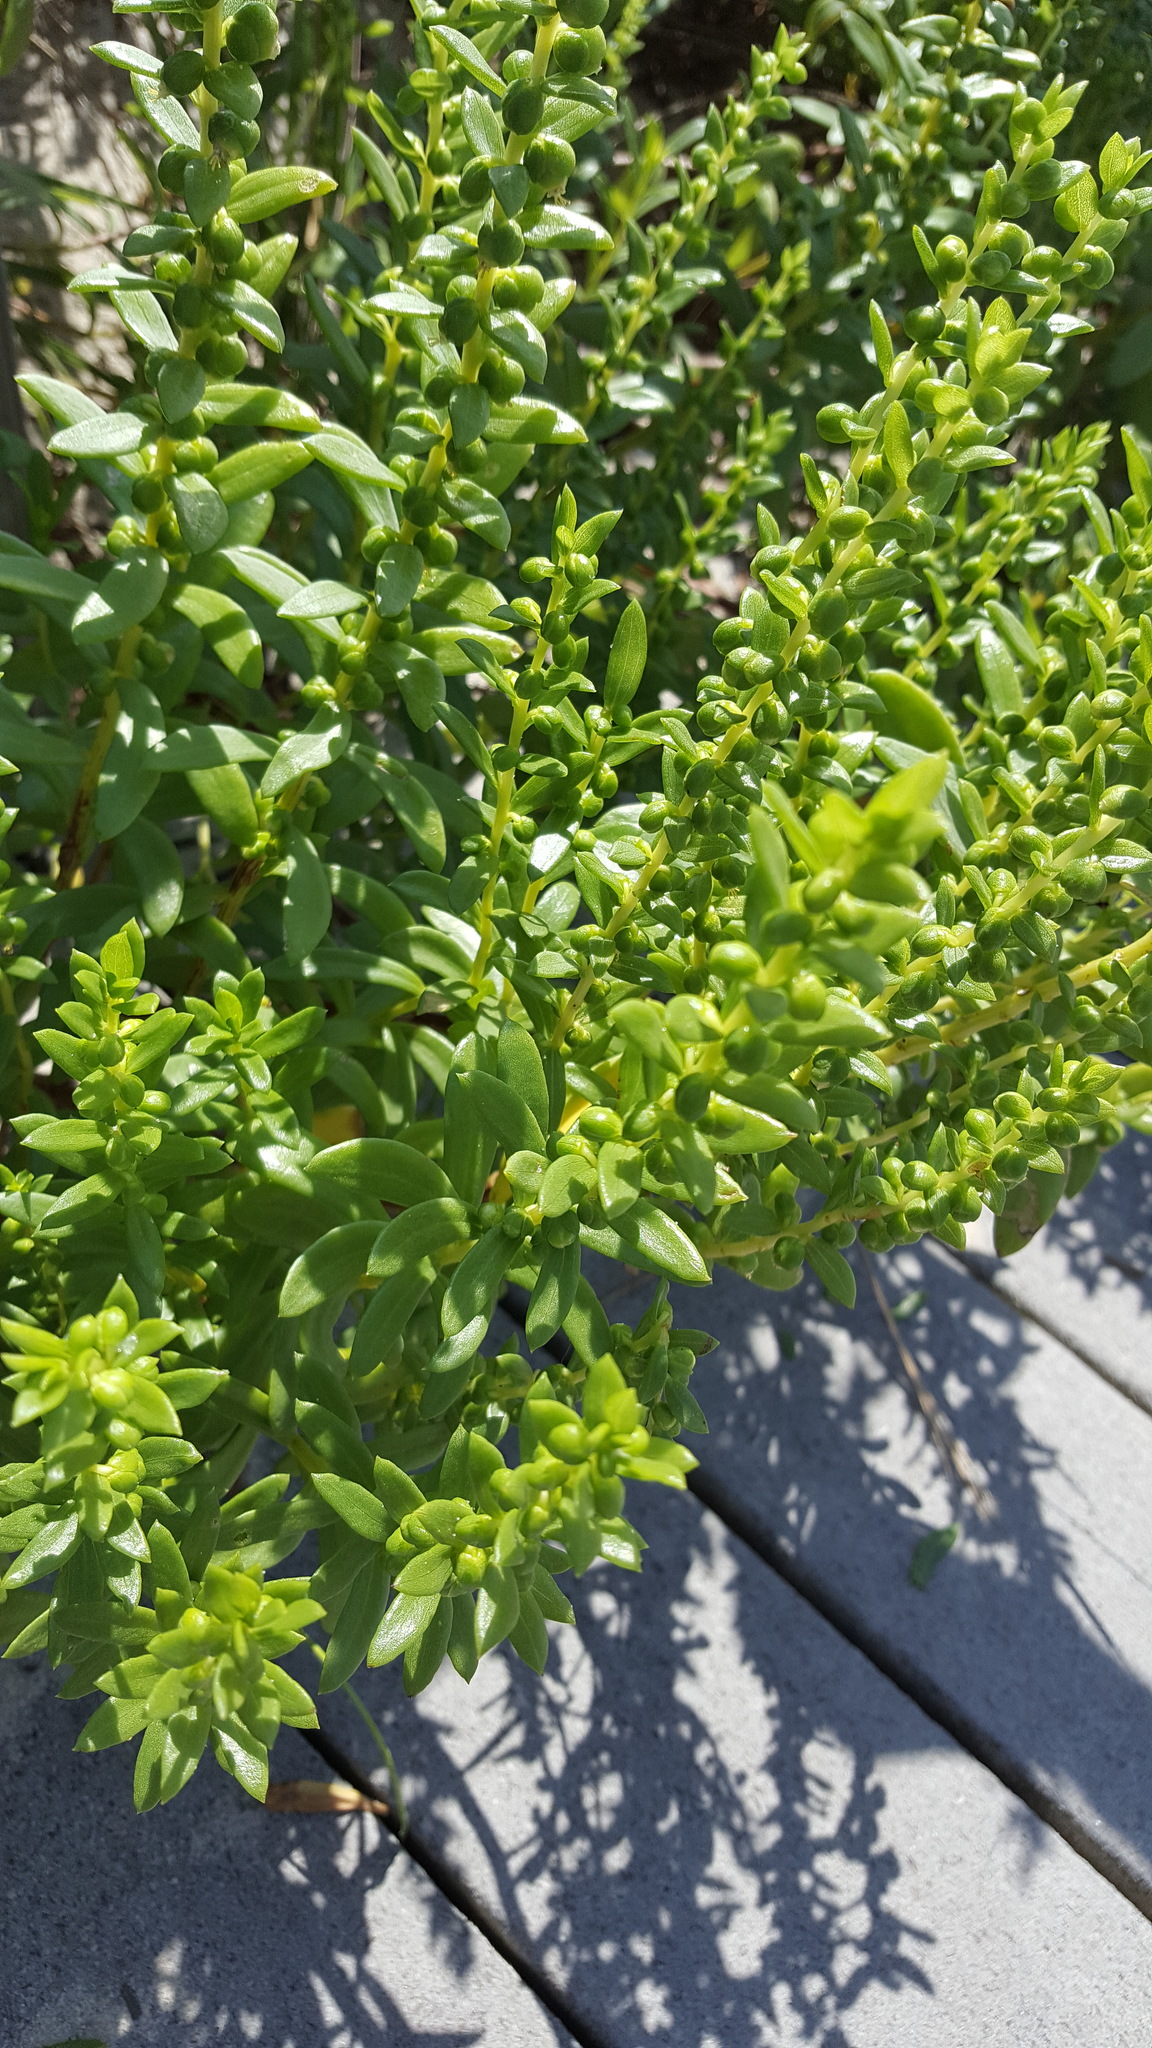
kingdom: Plantae
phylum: Tracheophyta
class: Magnoliopsida
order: Asterales
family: Asteraceae
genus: Iva
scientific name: Iva imbricata
